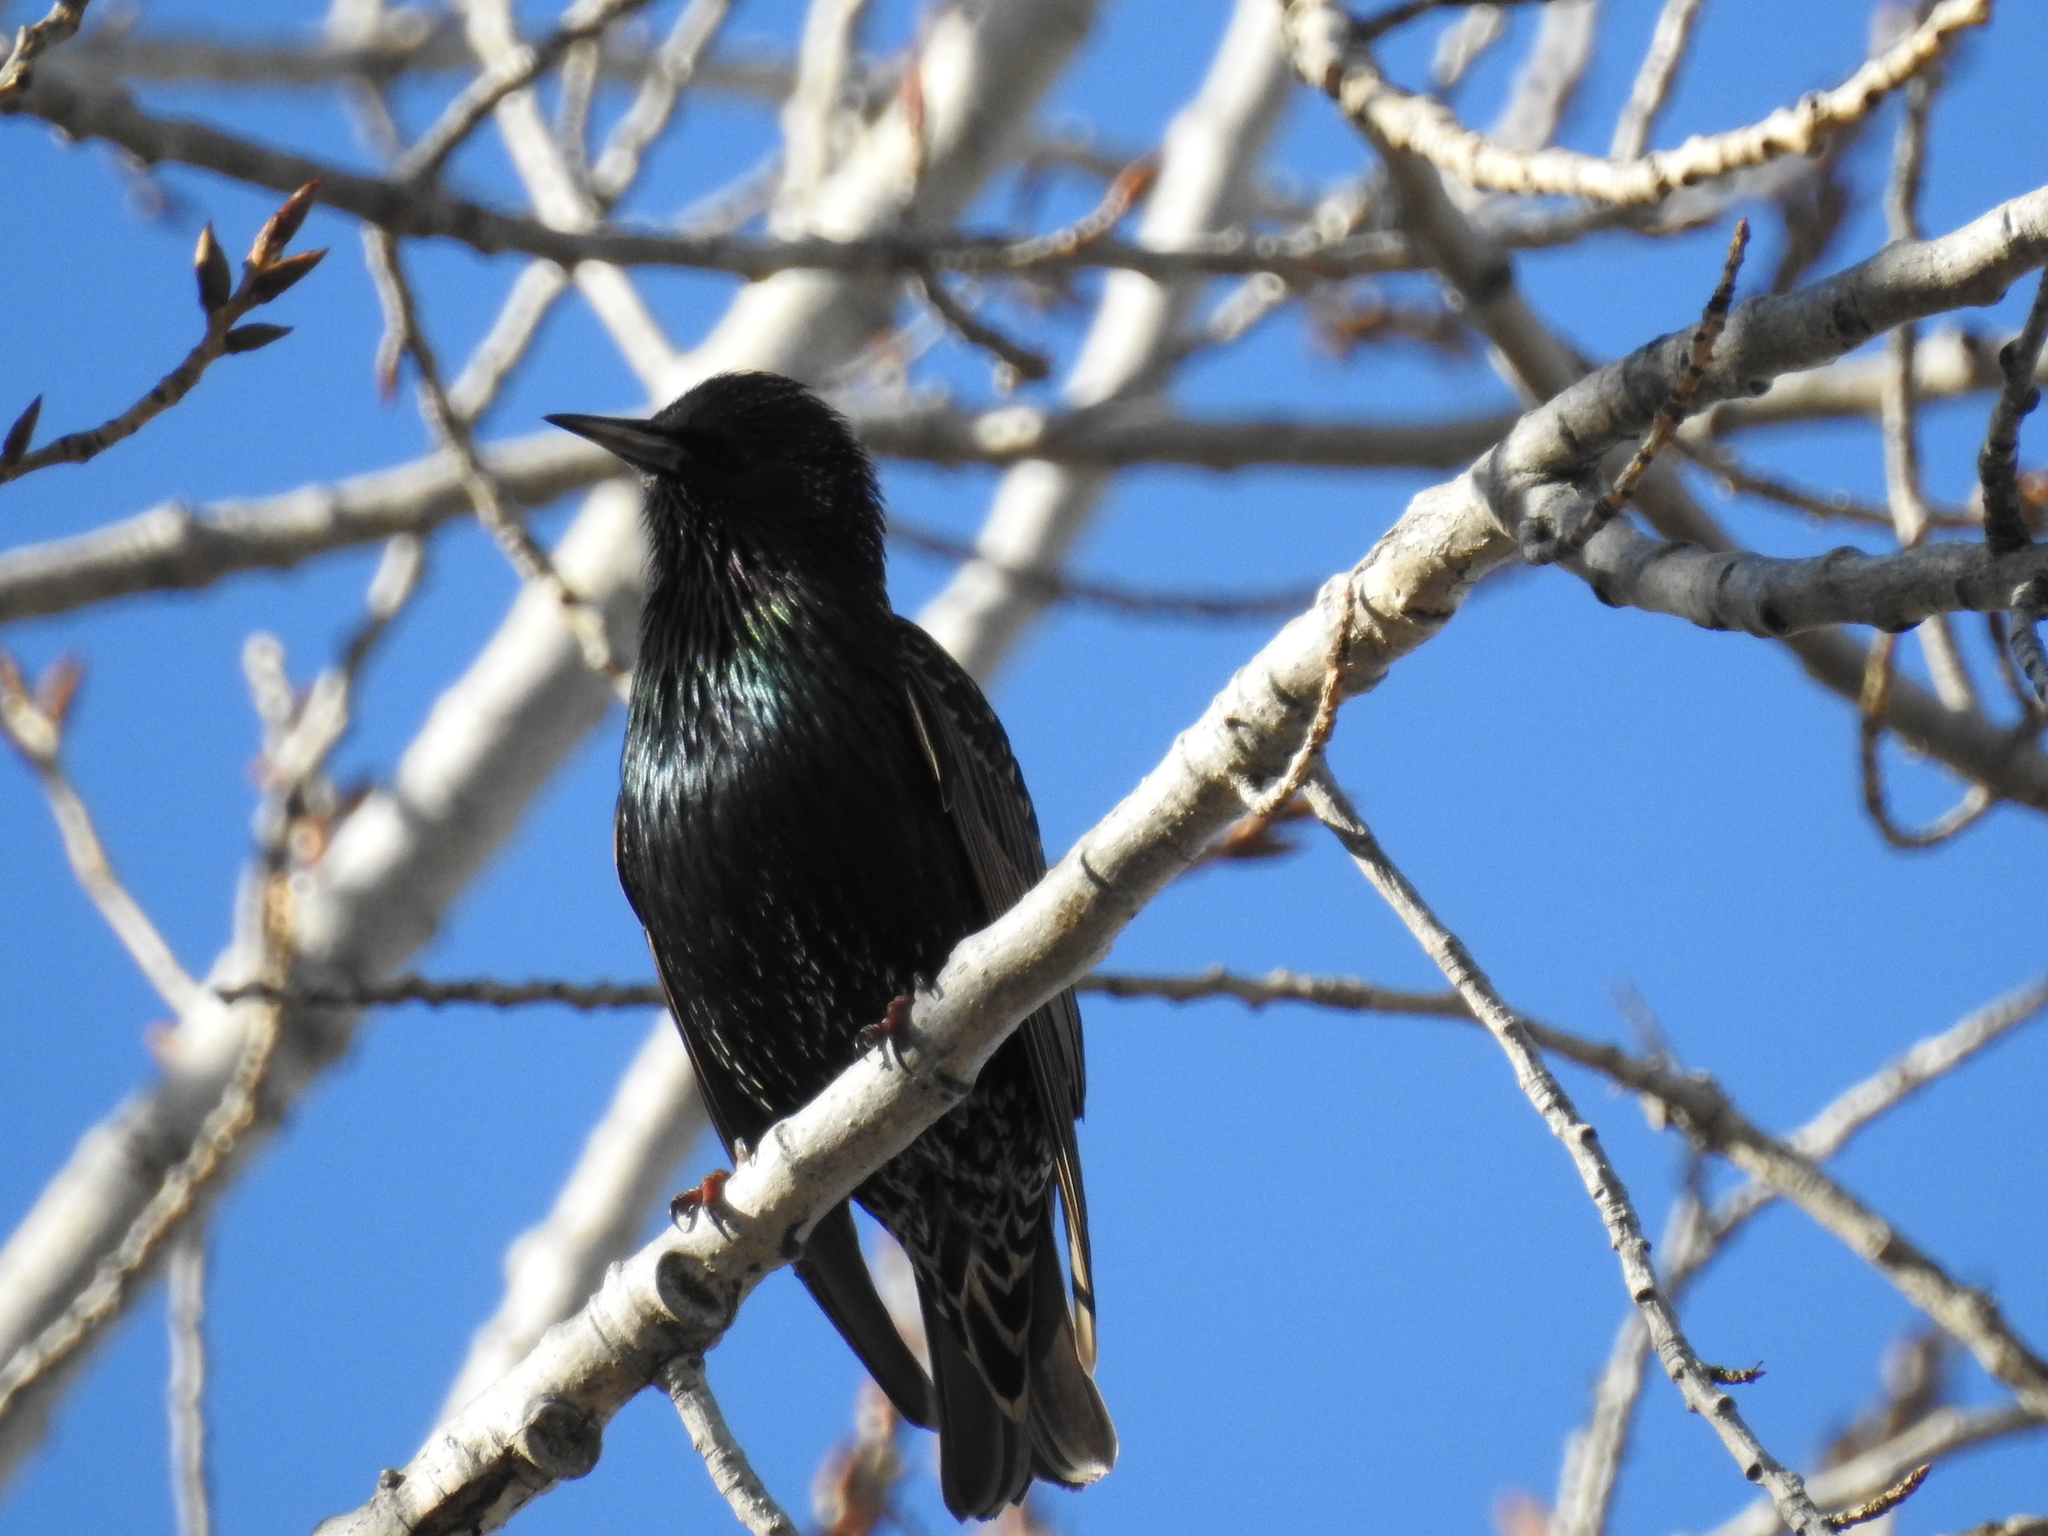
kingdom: Animalia
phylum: Chordata
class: Aves
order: Passeriformes
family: Sturnidae
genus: Sturnus
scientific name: Sturnus vulgaris
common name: Common starling
